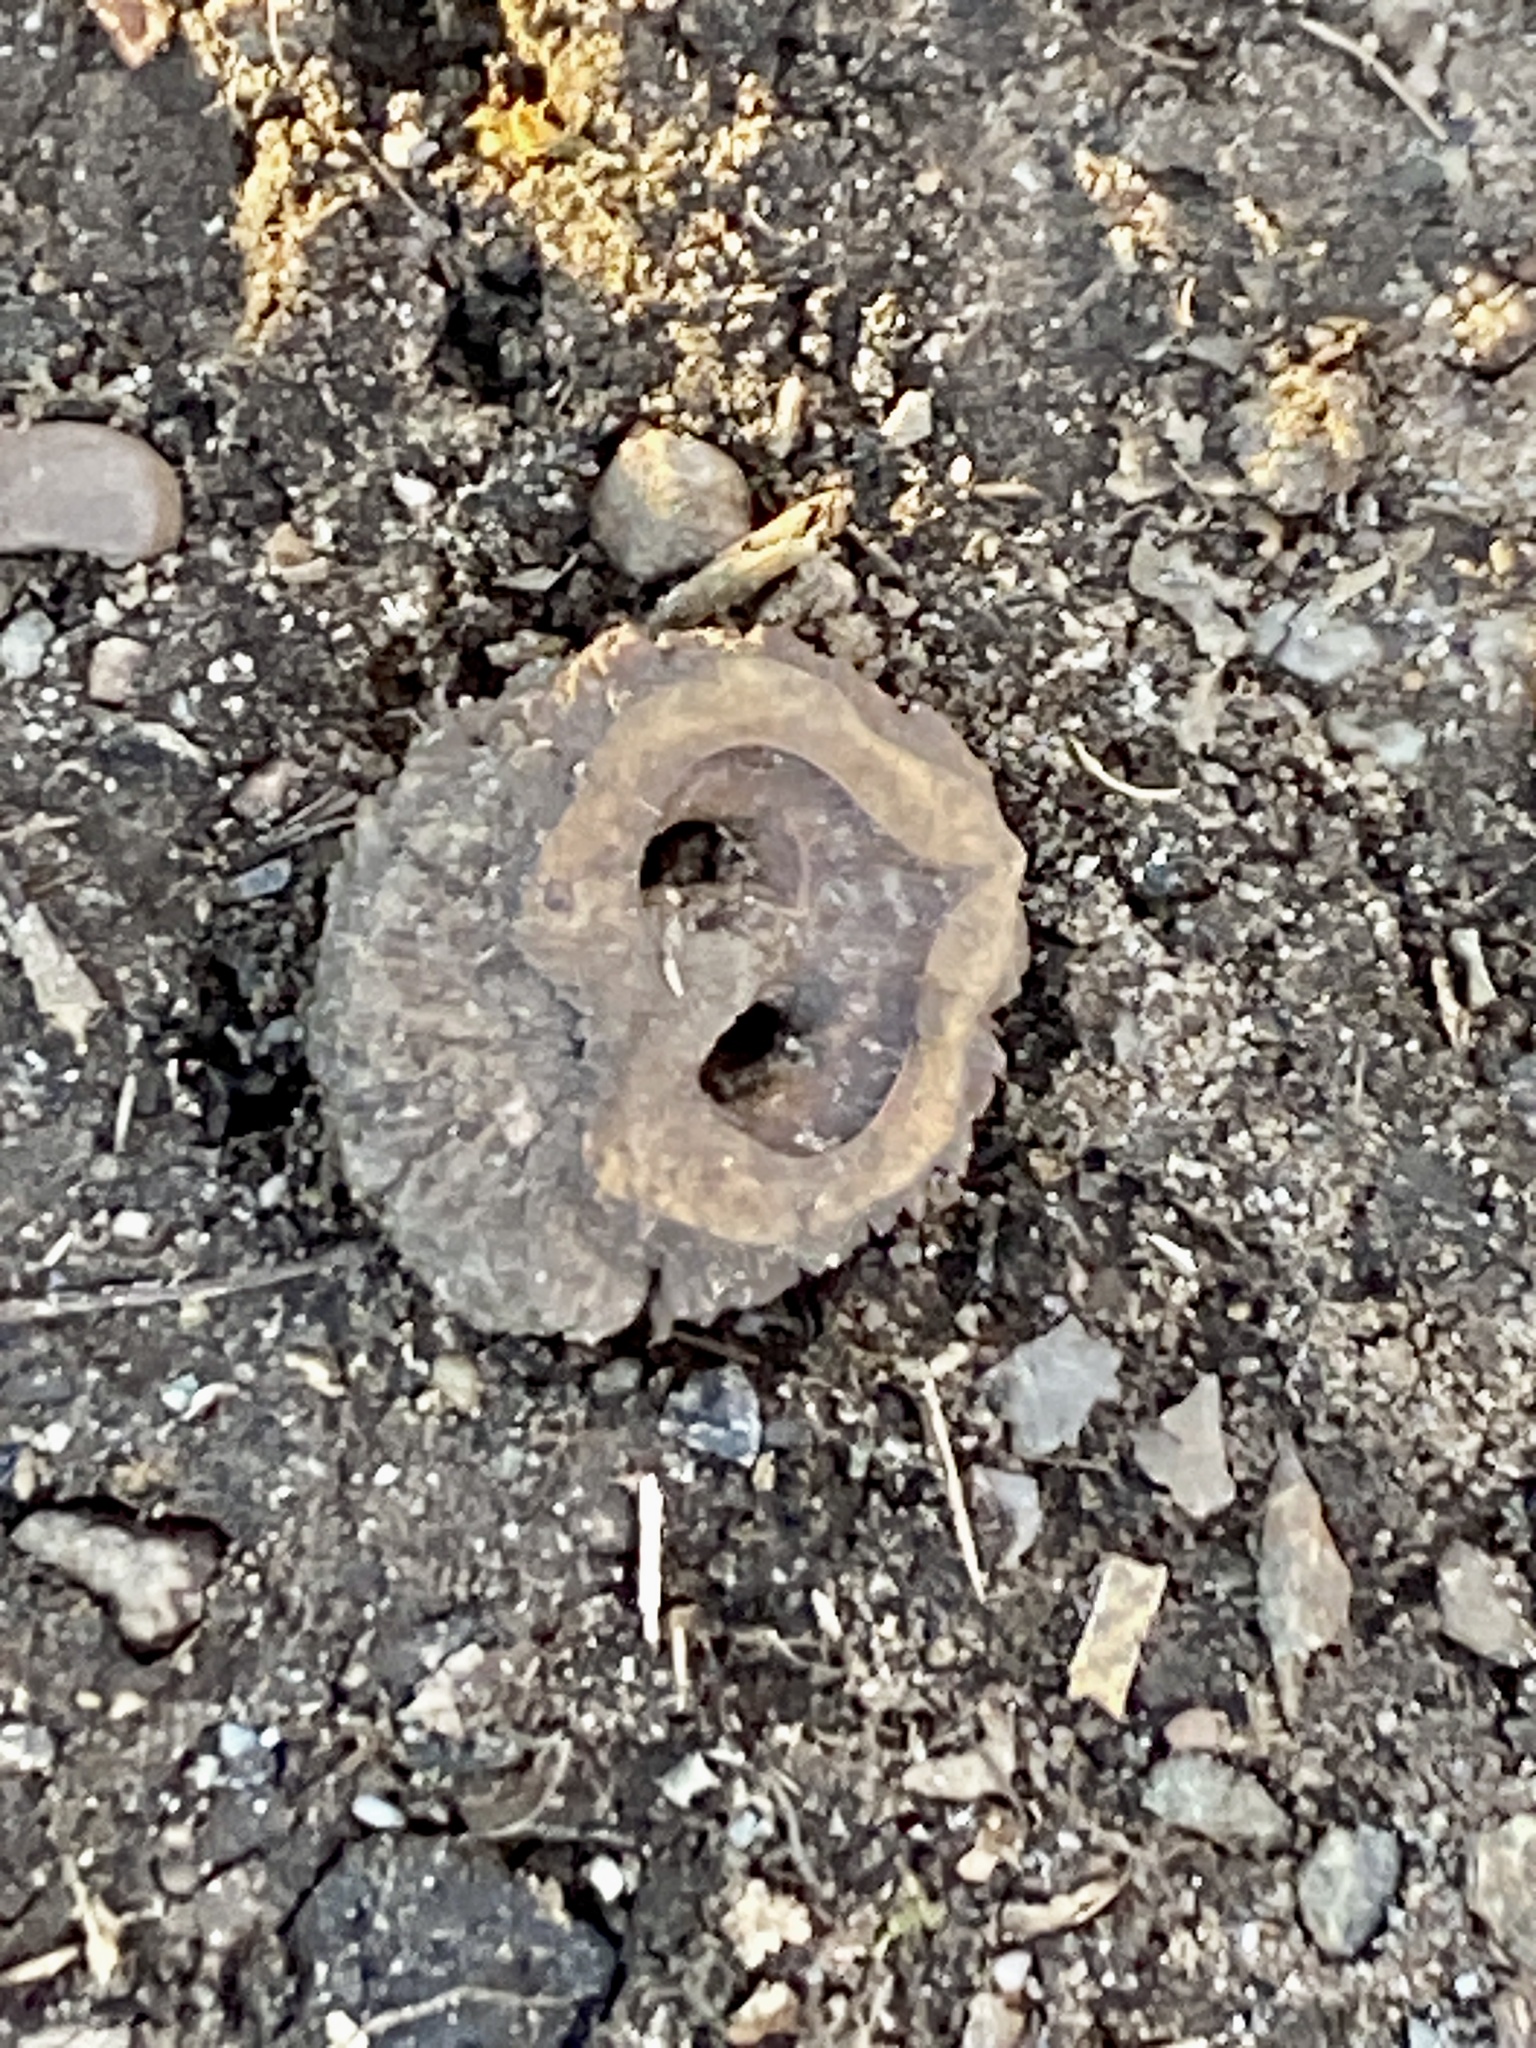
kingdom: Plantae
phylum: Tracheophyta
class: Magnoliopsida
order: Fagales
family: Juglandaceae
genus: Juglans
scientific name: Juglans nigra
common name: Black walnut
